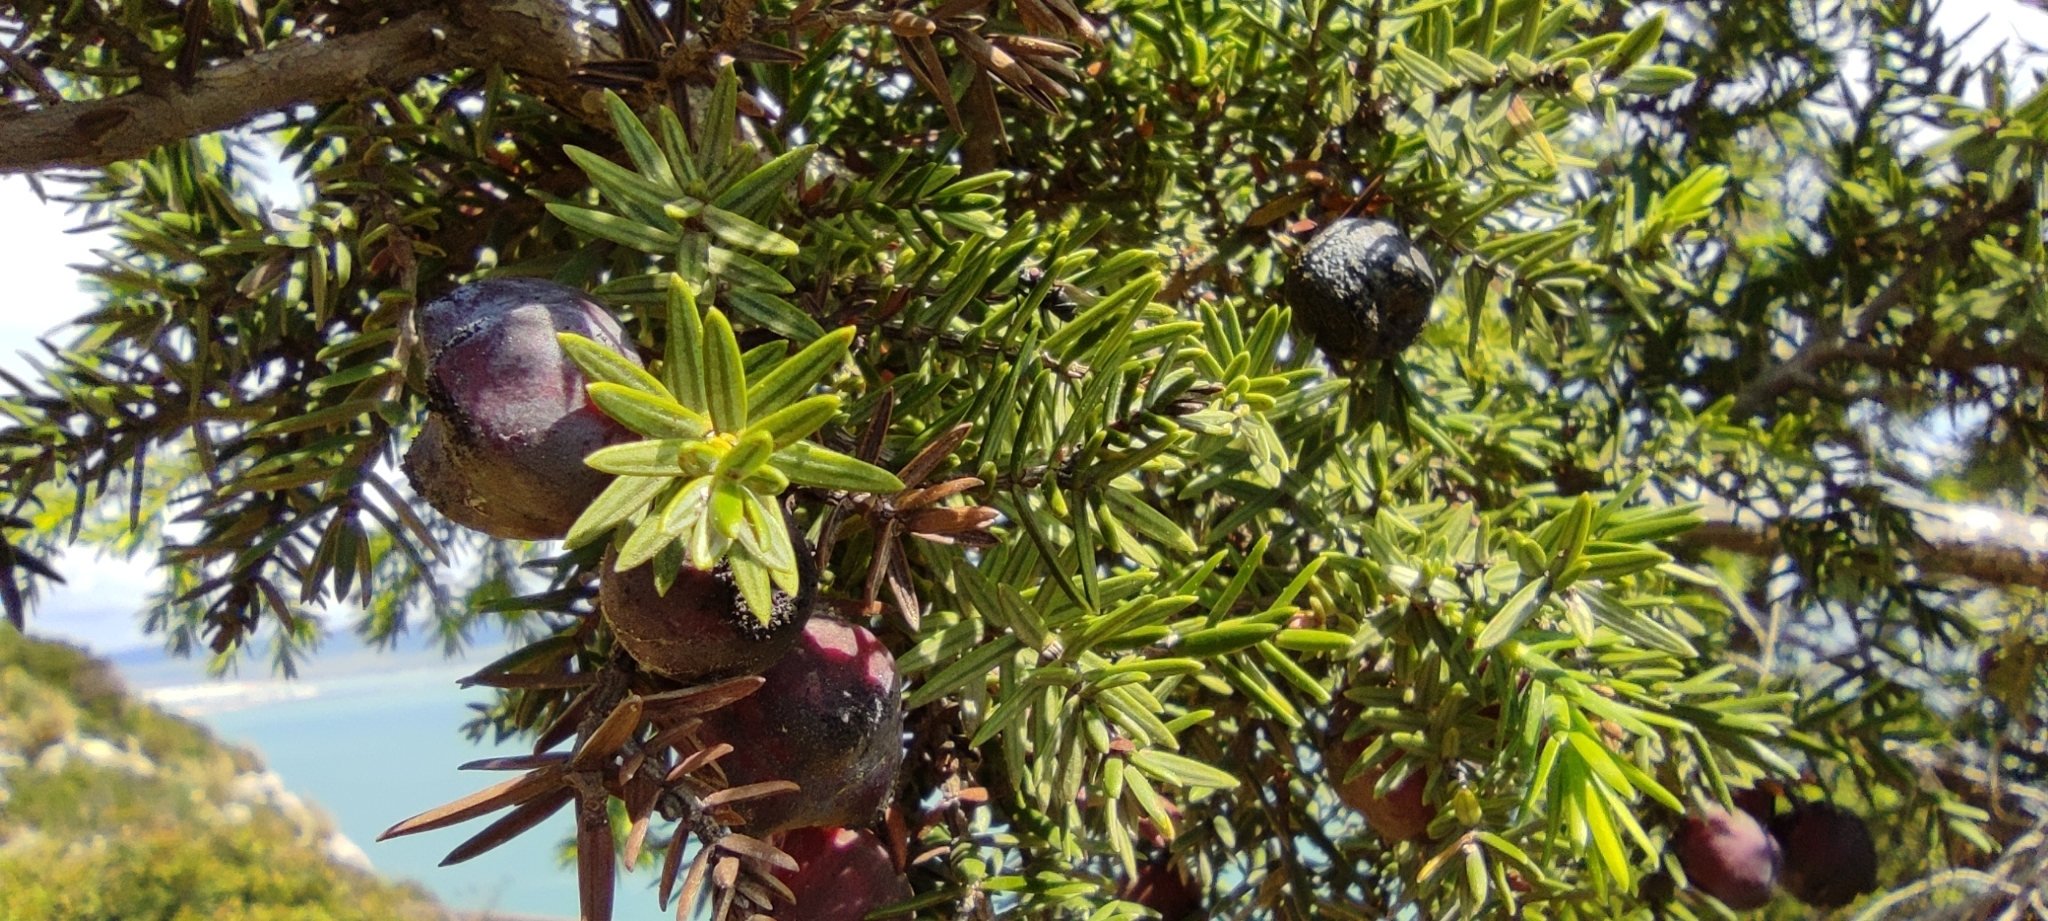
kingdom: Plantae
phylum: Tracheophyta
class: Pinopsida
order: Pinales
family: Cupressaceae
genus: Juniperus
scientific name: Juniperus oxycedrus
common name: Prickly juniper
